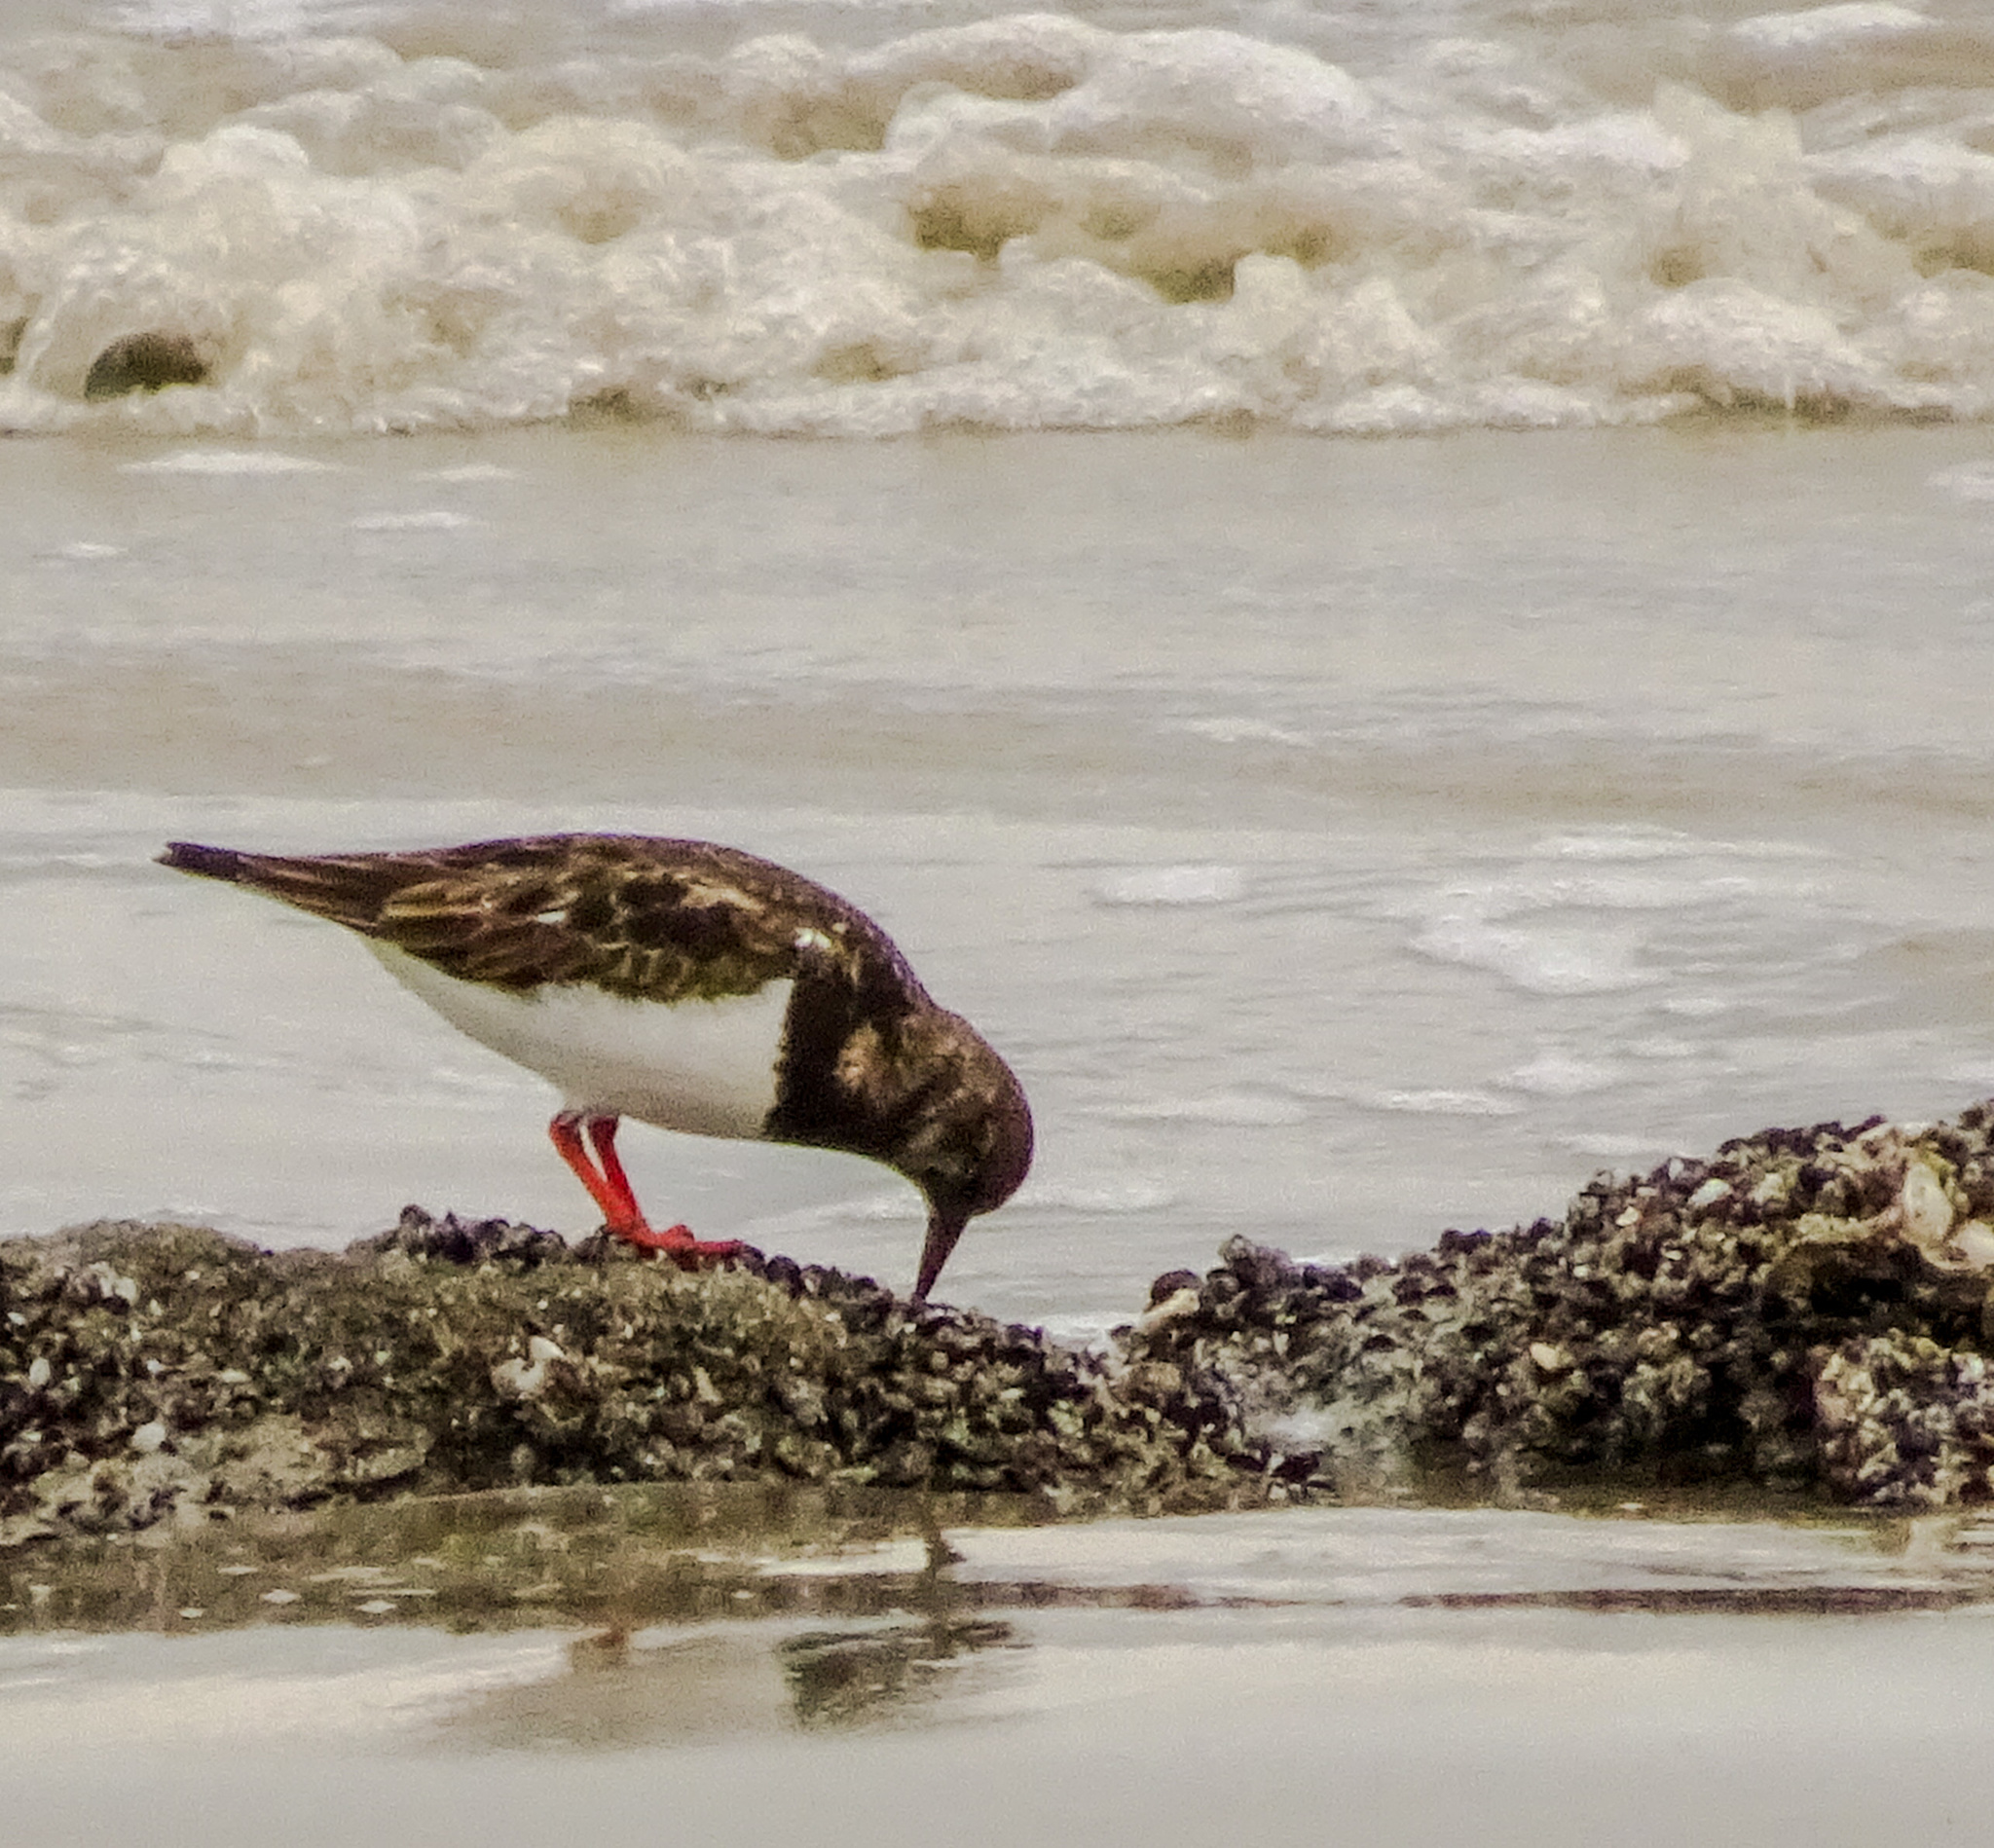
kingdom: Animalia
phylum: Chordata
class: Aves
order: Charadriiformes
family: Scolopacidae
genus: Arenaria
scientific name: Arenaria interpres
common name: Ruddy turnstone
